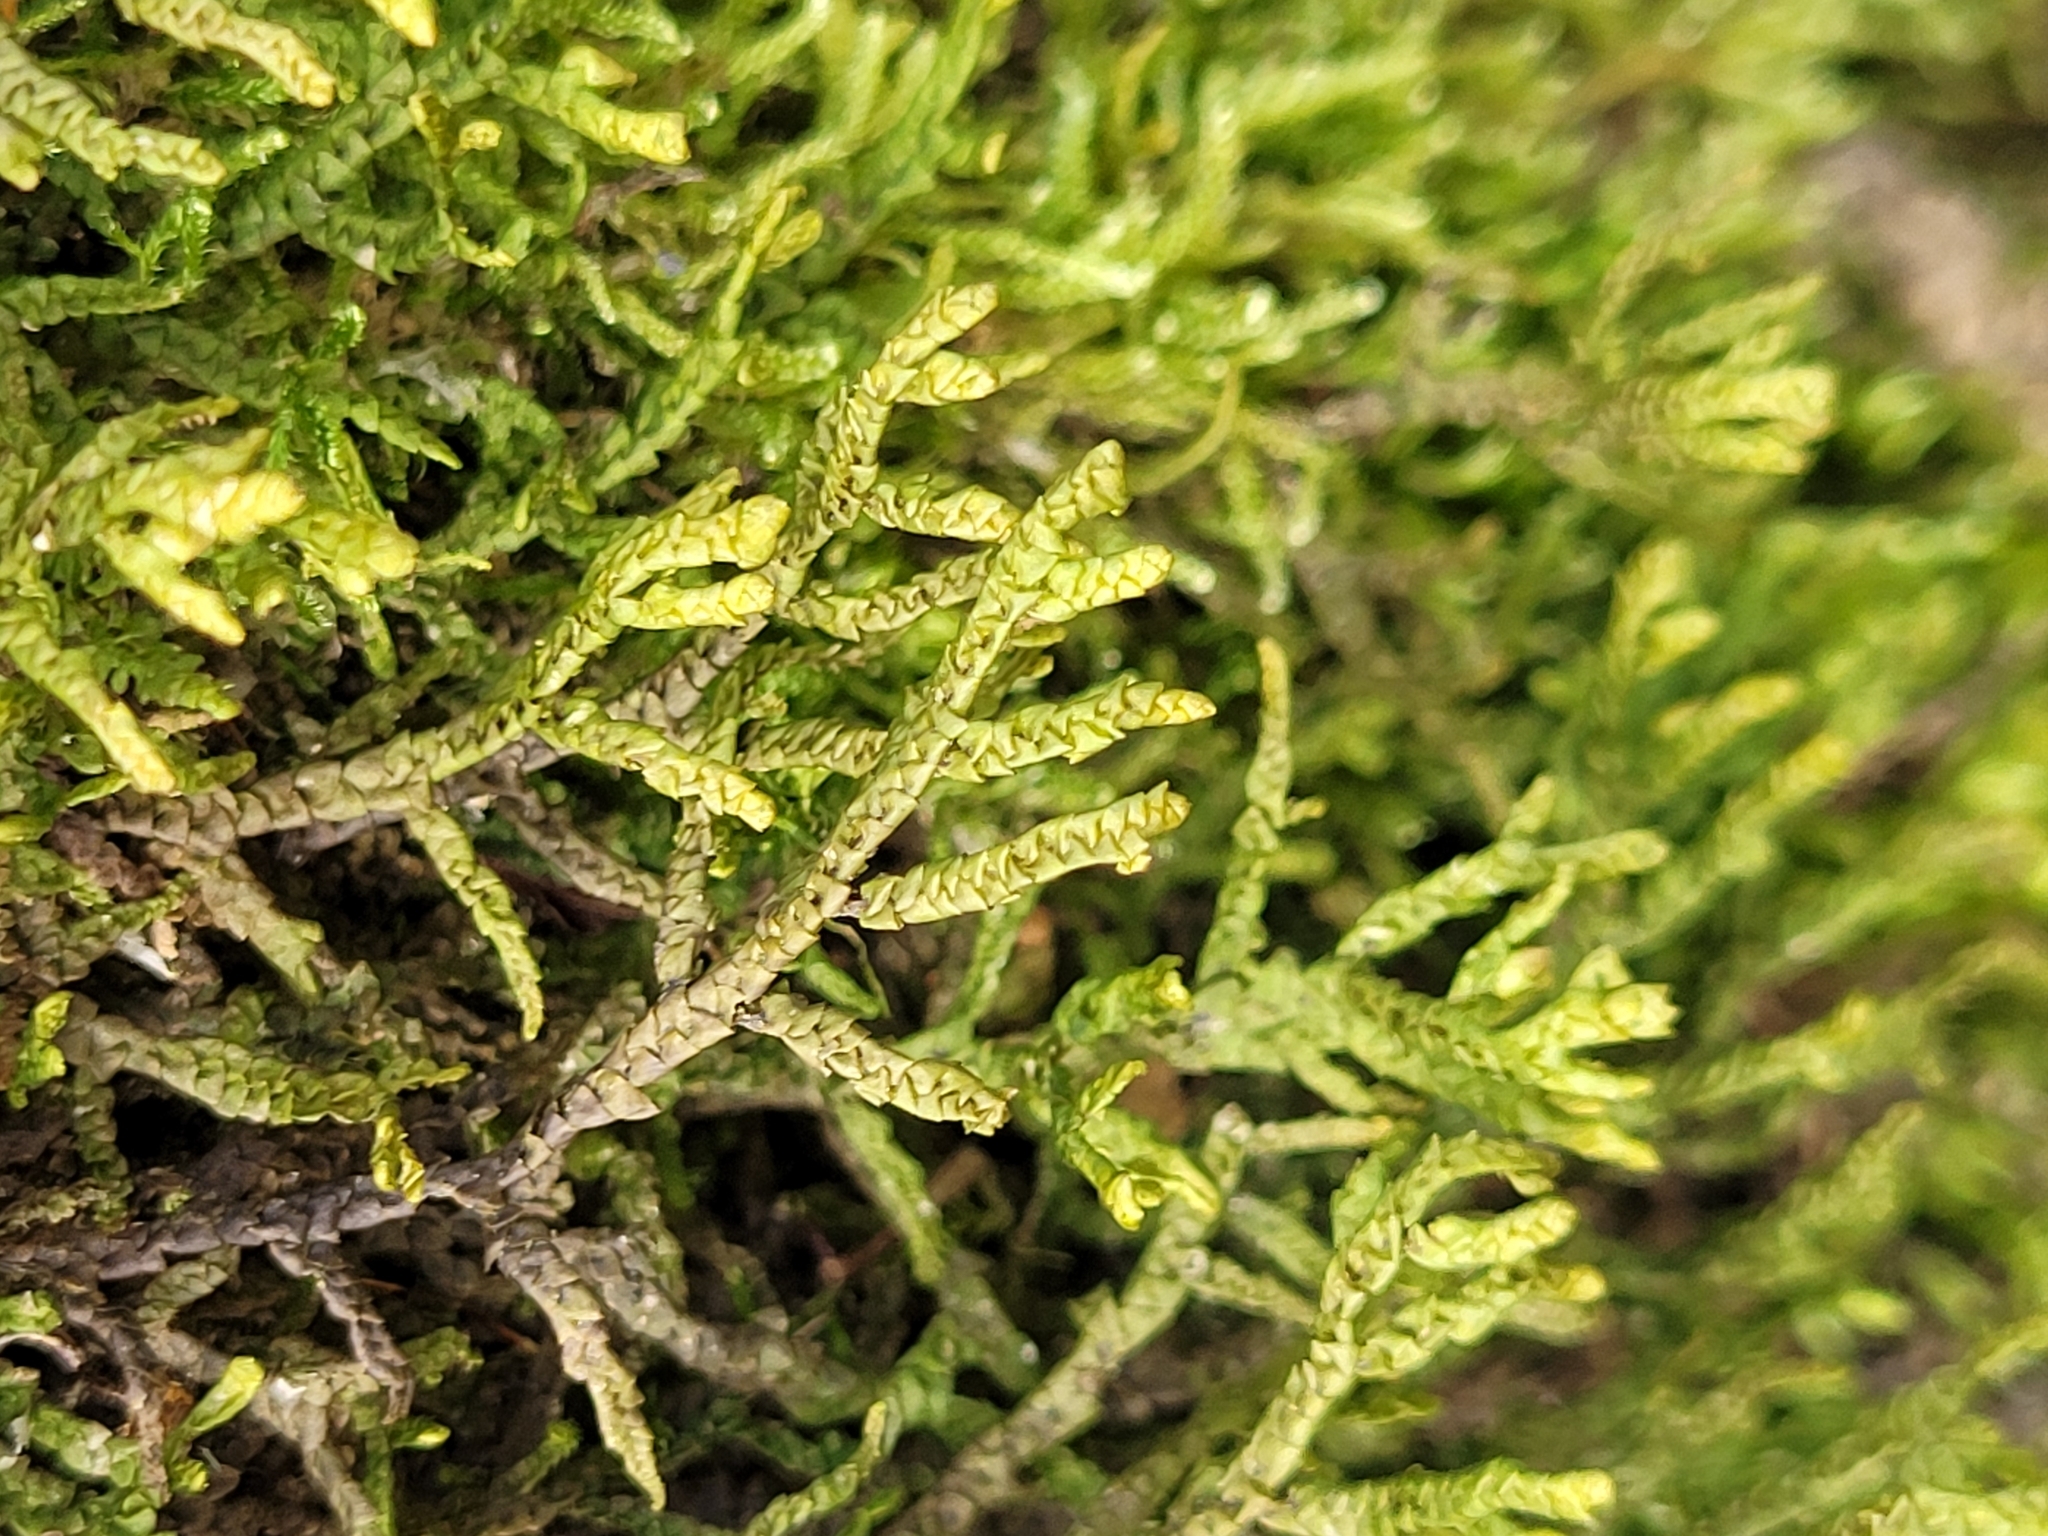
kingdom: Plantae
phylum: Marchantiophyta
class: Jungermanniopsida
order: Porellales
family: Porellaceae
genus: Porella
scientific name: Porella platyphylla
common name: Wall scalewort
